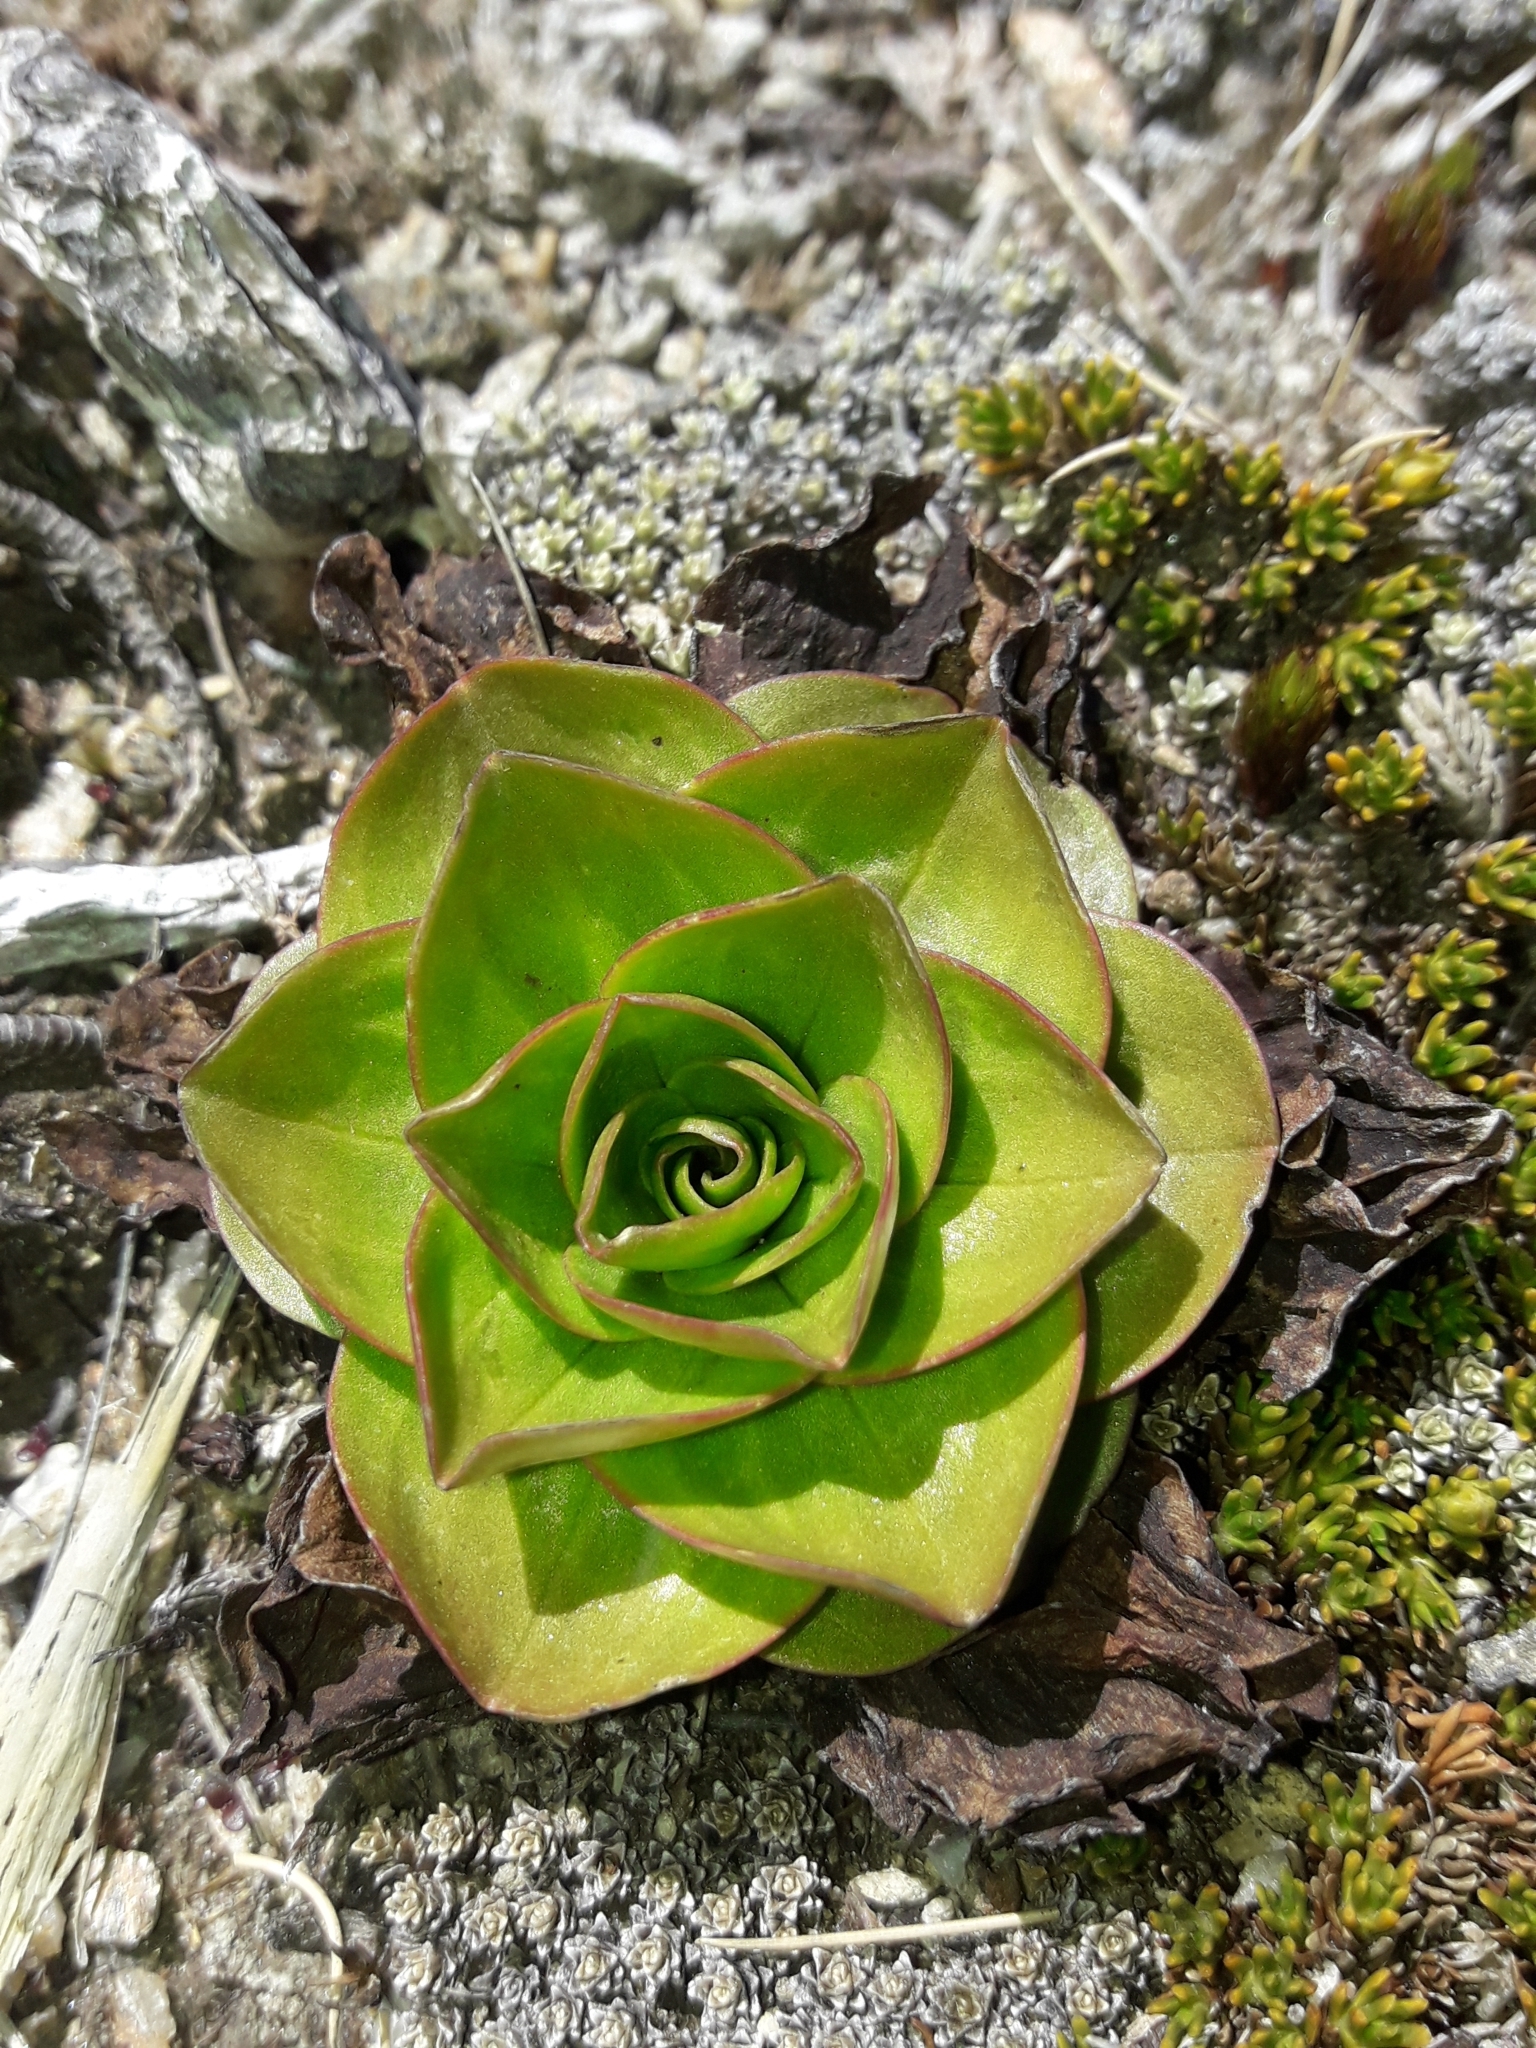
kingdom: Plantae
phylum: Tracheophyta
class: Magnoliopsida
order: Gentianales
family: Gentianaceae
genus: Gentianella
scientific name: Gentianella divisa
